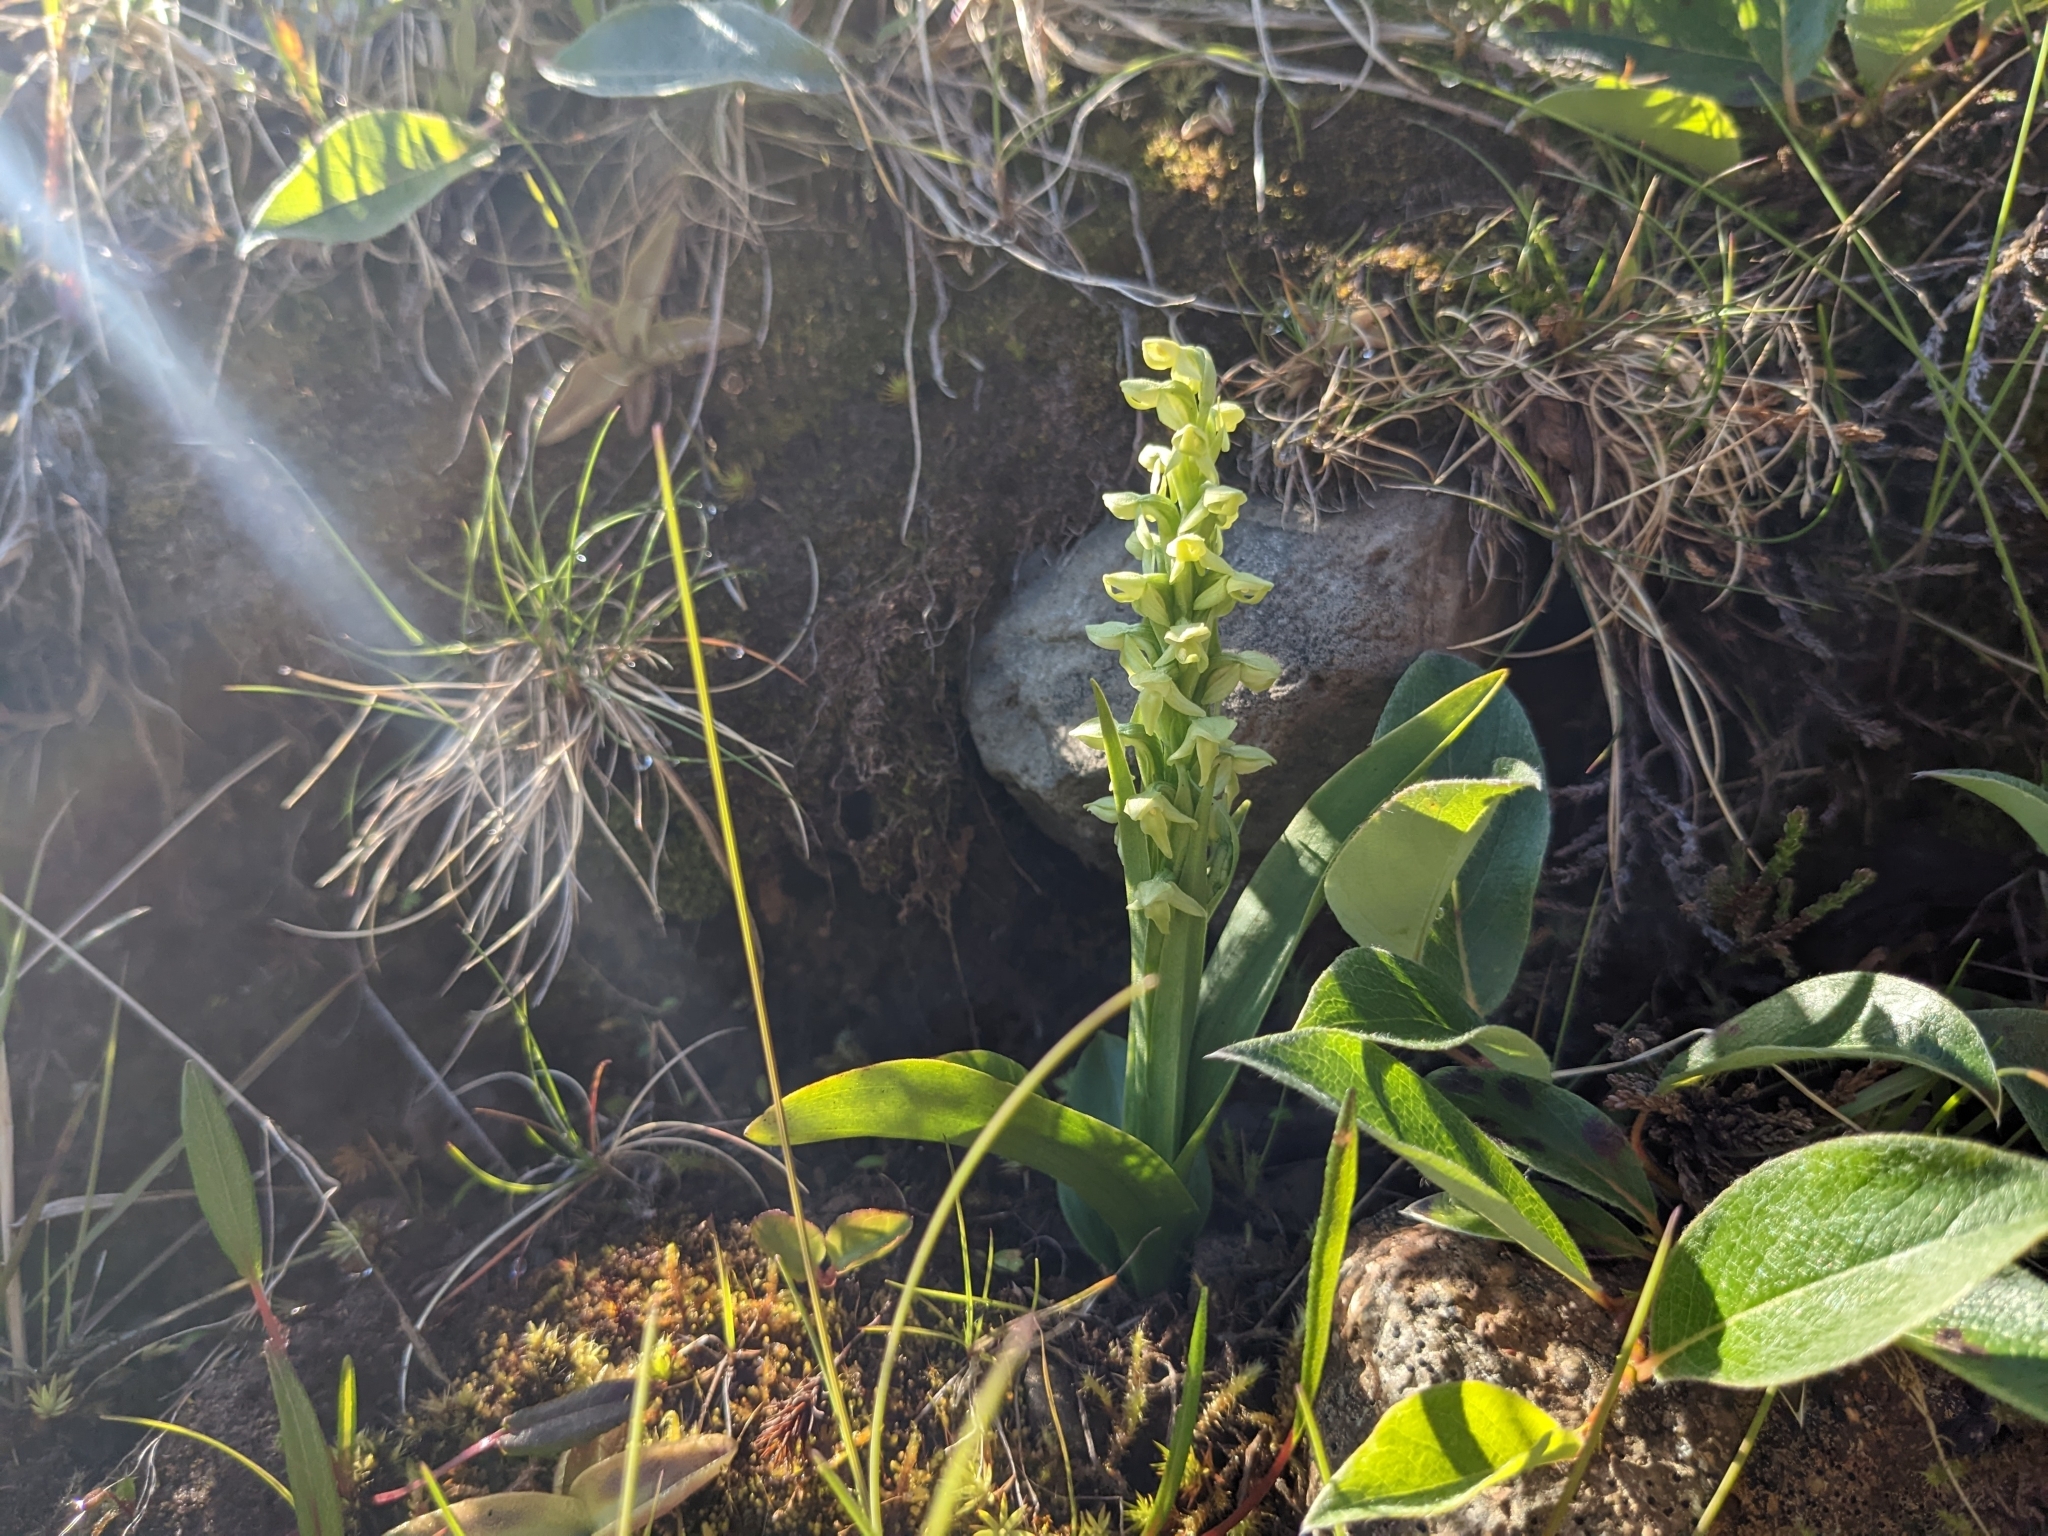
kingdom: Plantae
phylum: Tracheophyta
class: Liliopsida
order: Asparagales
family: Orchidaceae
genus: Platanthera
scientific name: Platanthera hyperborea
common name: Northern green orchid
